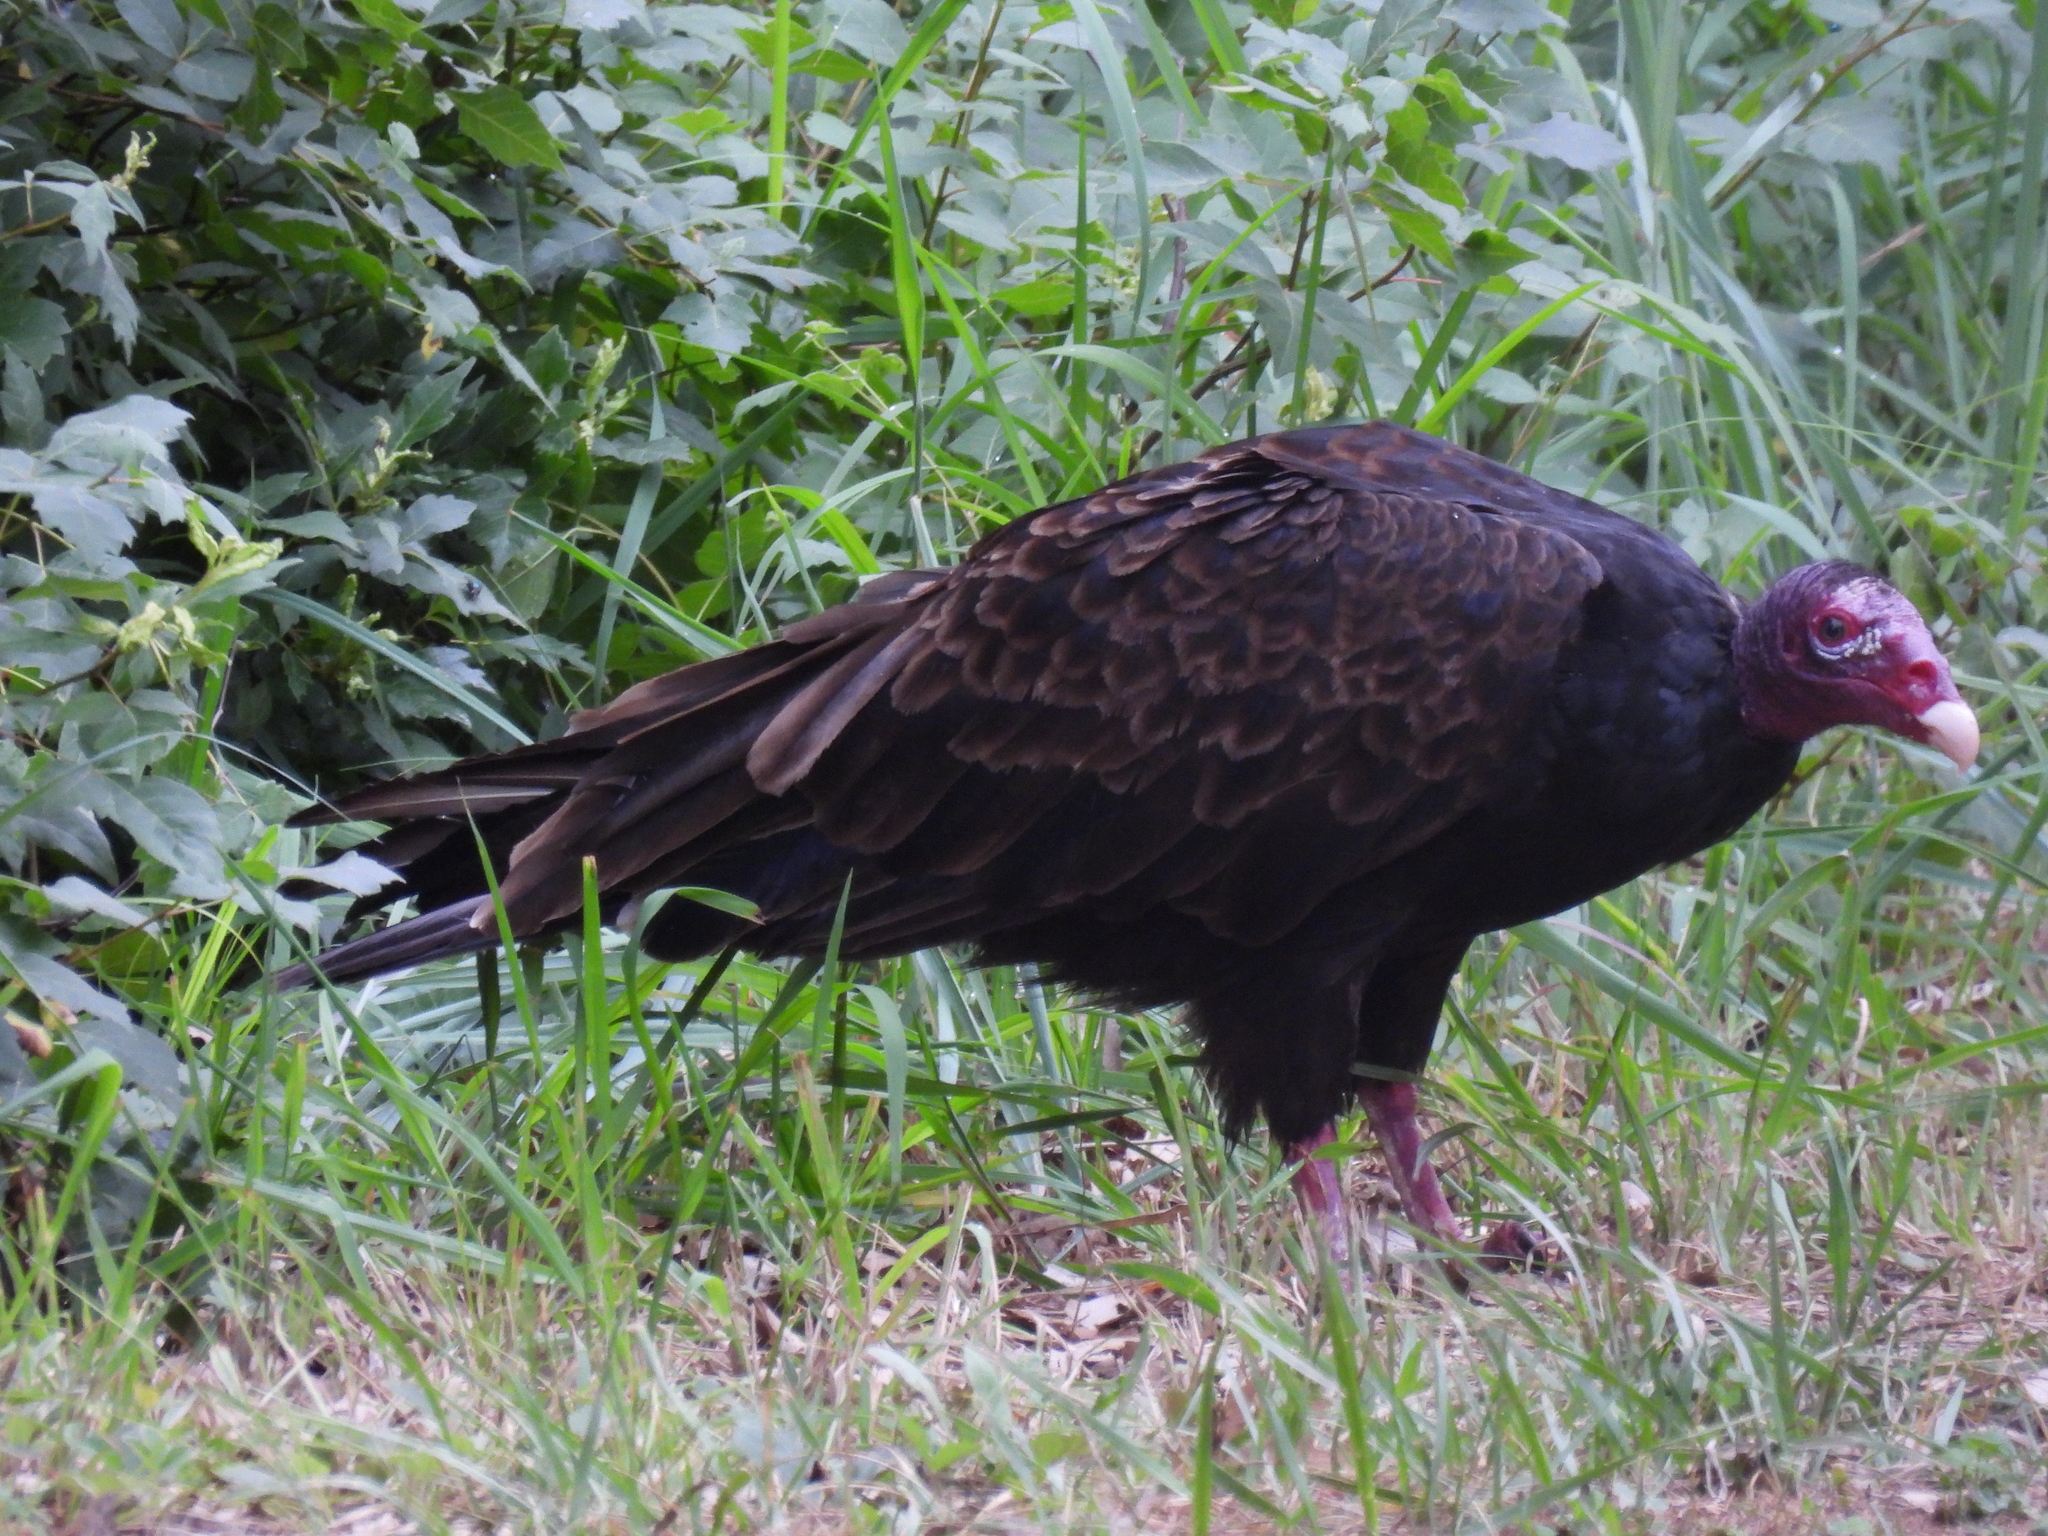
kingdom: Animalia
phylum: Chordata
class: Aves
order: Accipitriformes
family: Cathartidae
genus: Cathartes
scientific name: Cathartes aura
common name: Turkey vulture
